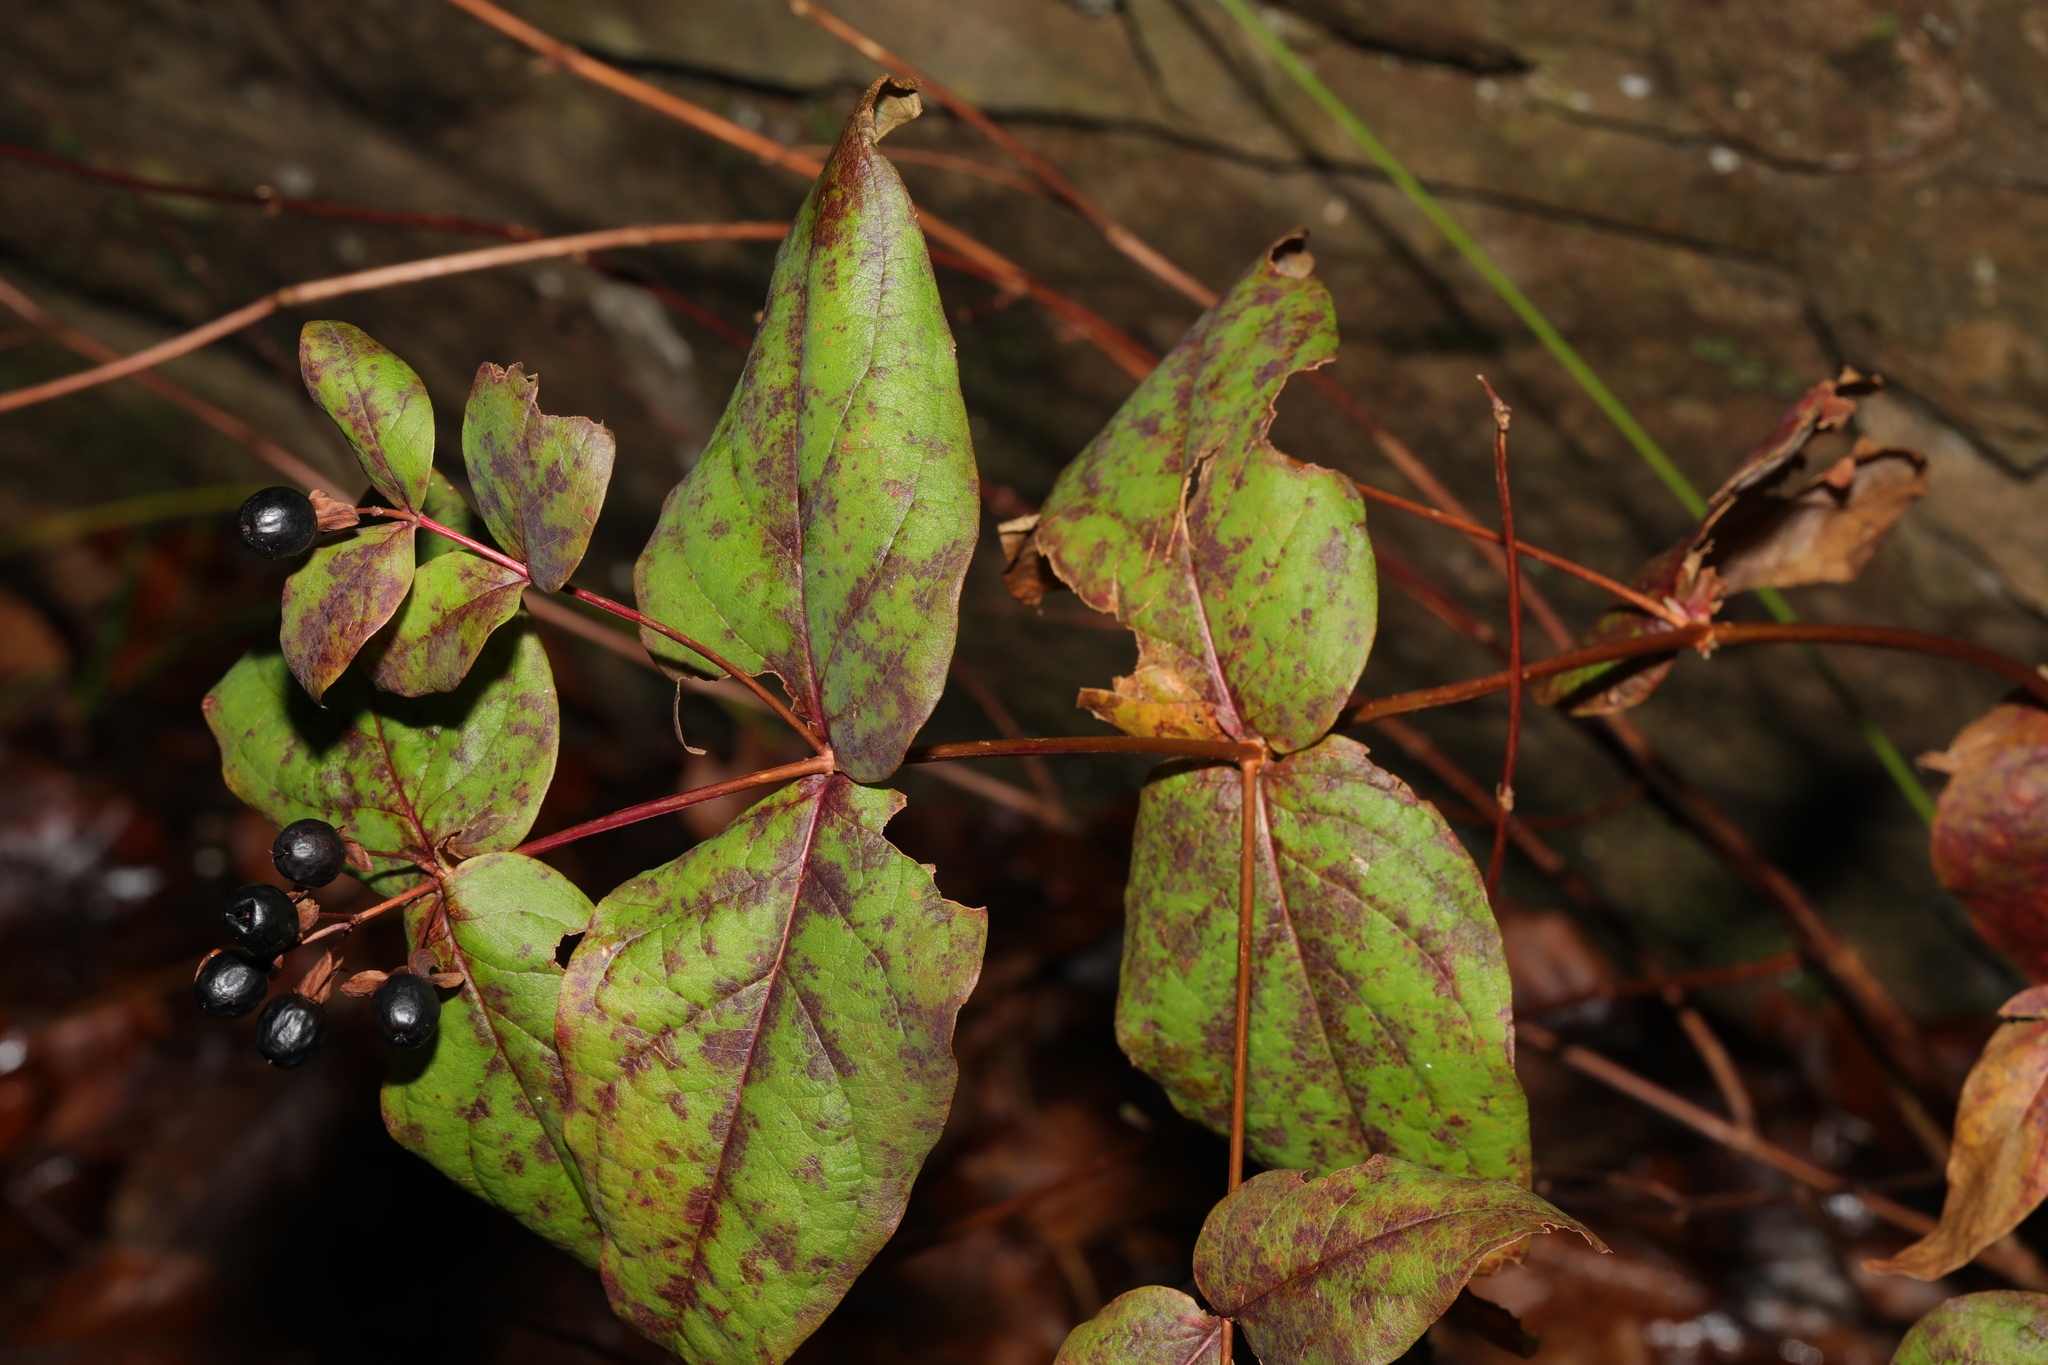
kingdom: Plantae
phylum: Tracheophyta
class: Magnoliopsida
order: Malpighiales
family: Hypericaceae
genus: Hypericum
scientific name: Hypericum androsaemum
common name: Sweet-amber
